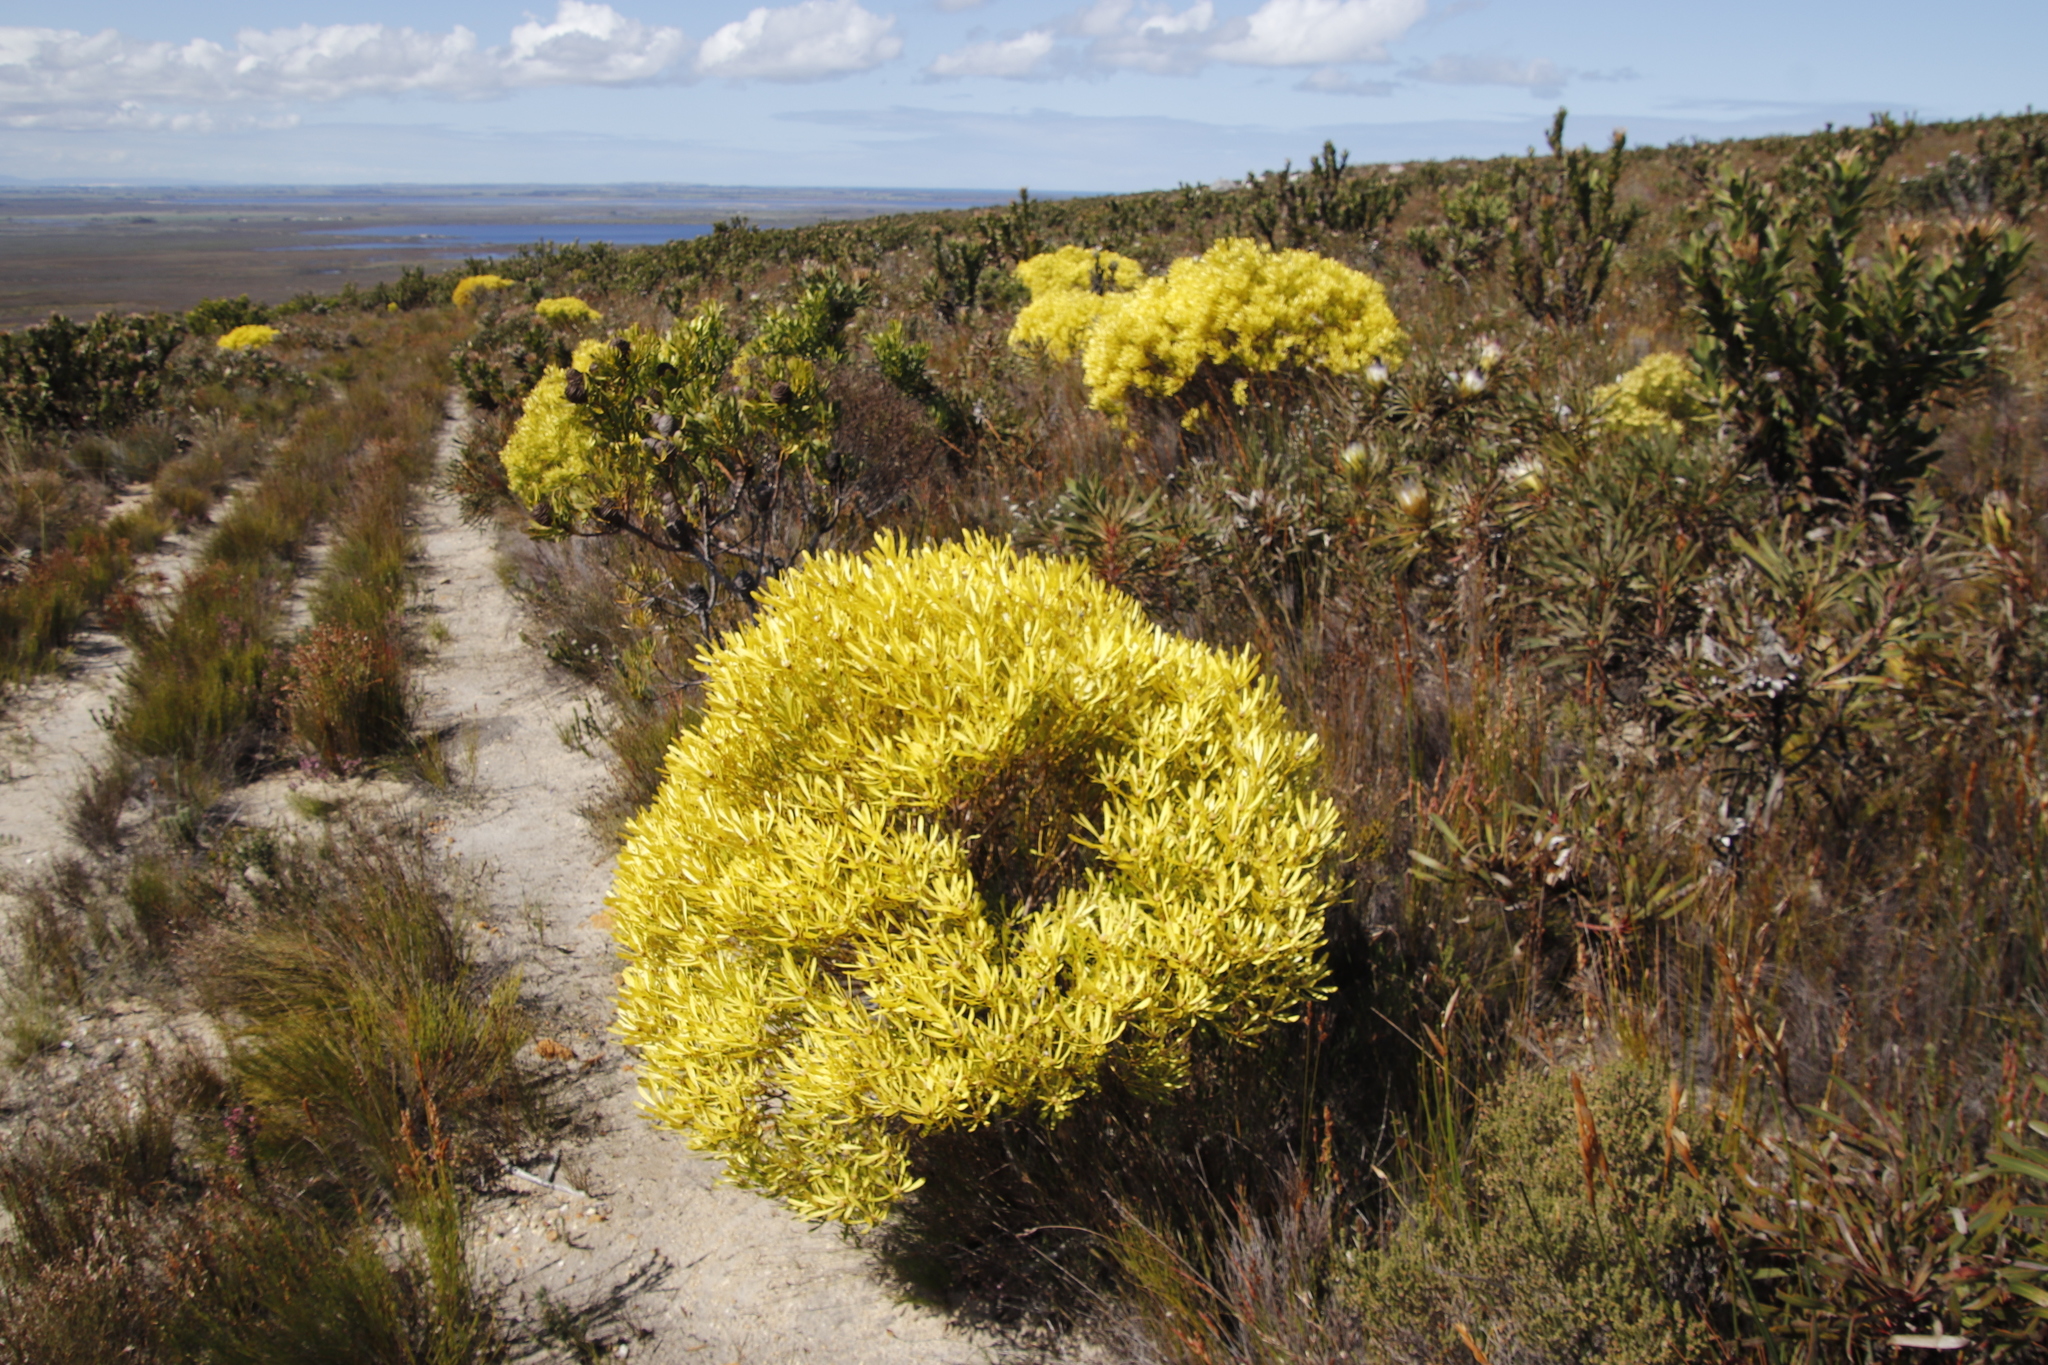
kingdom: Plantae
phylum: Tracheophyta
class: Magnoliopsida
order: Proteales
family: Proteaceae
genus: Leucadendron
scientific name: Leucadendron platyspermum
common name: Plate-seed conebush
